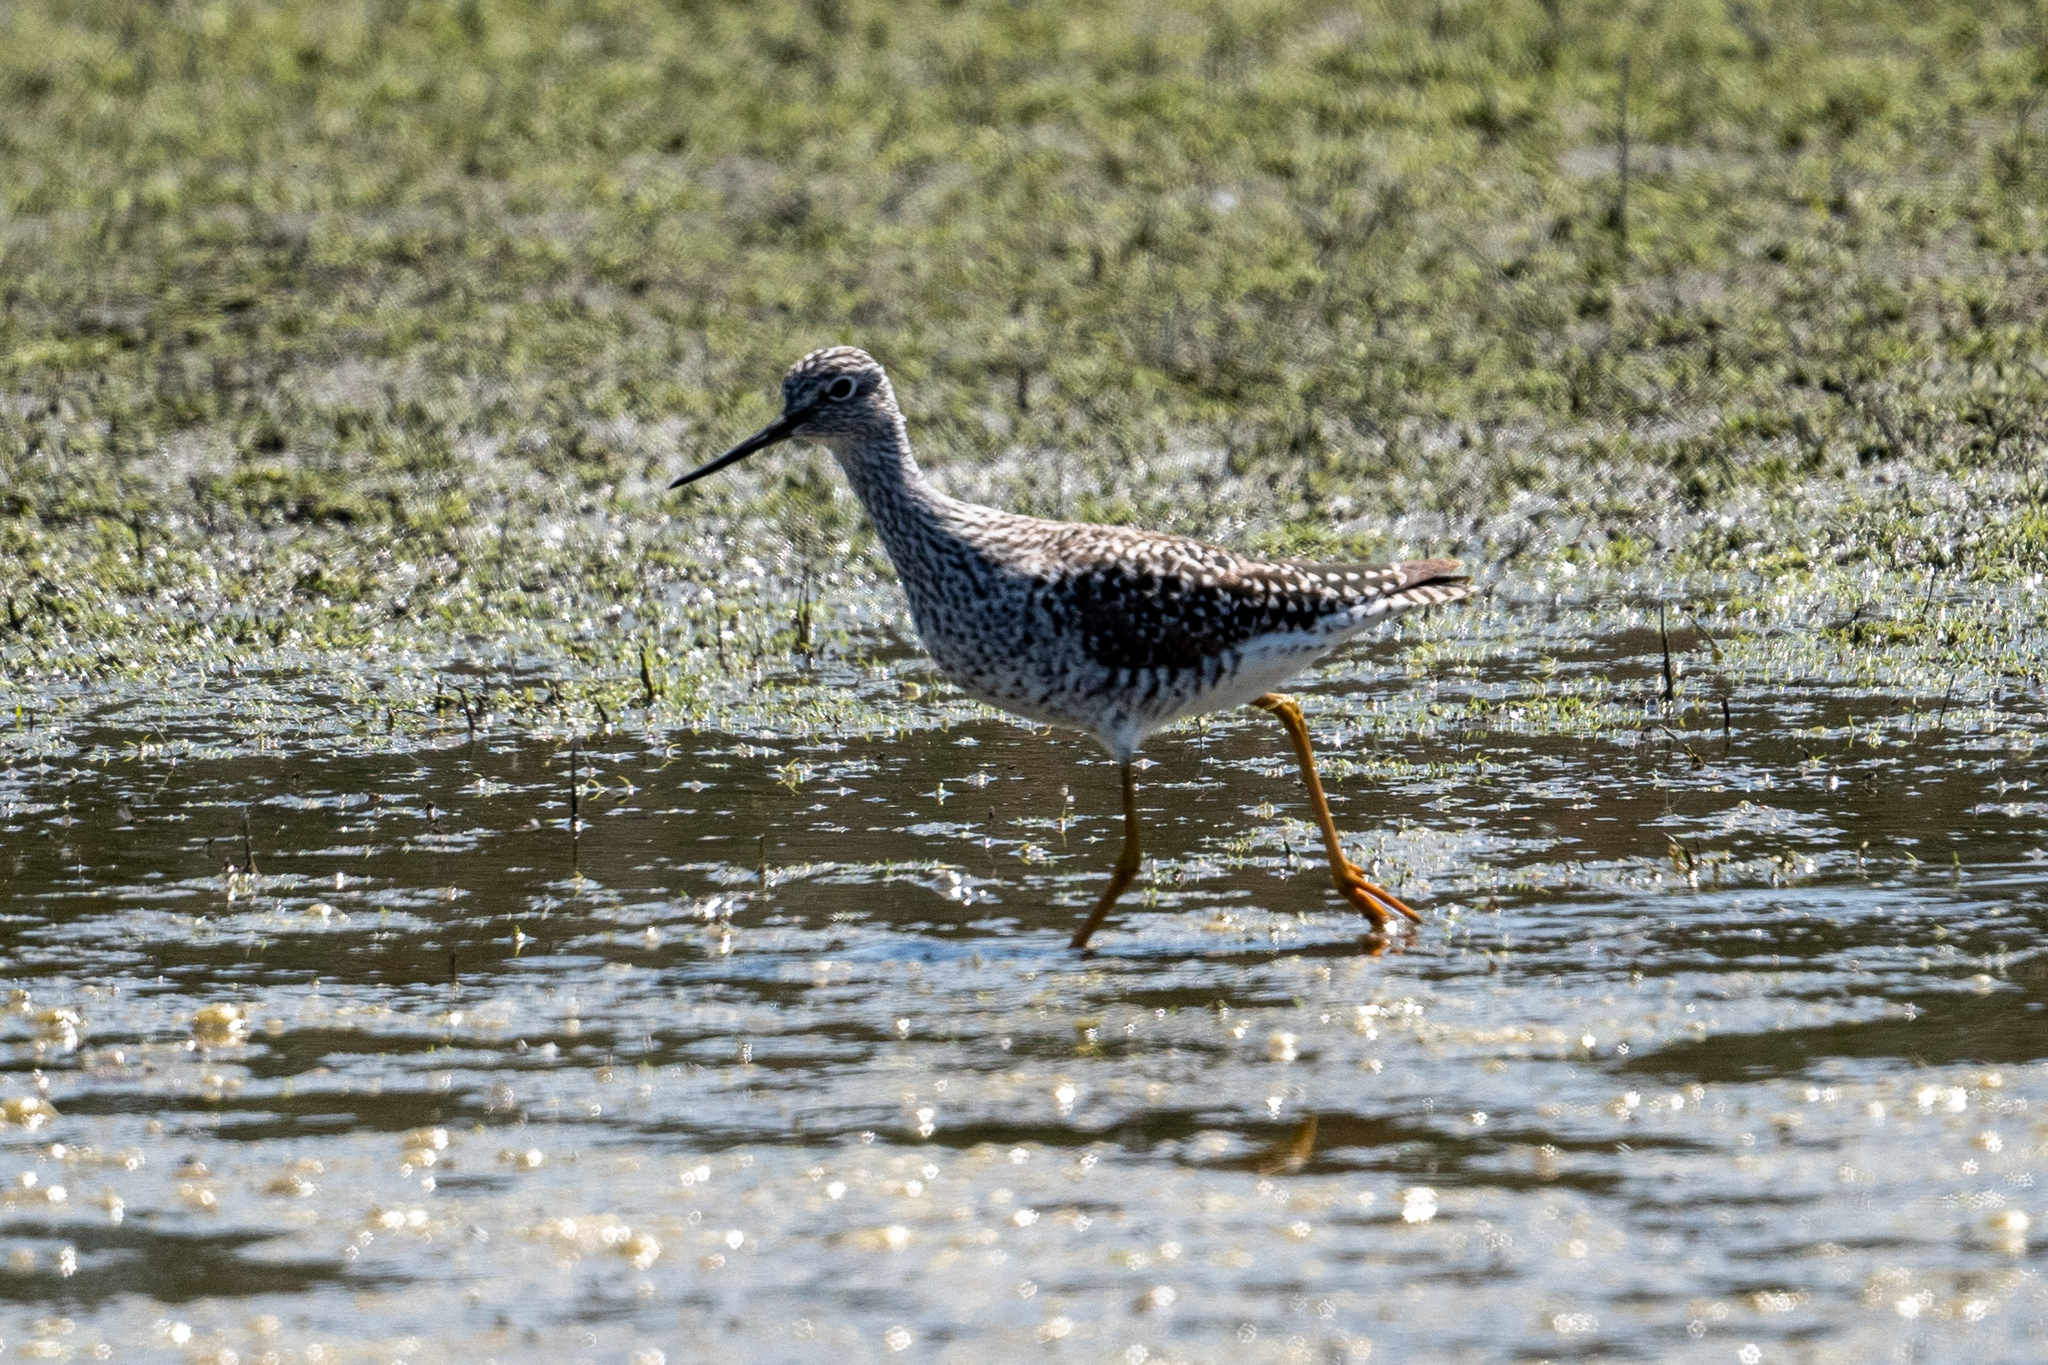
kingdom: Animalia
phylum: Chordata
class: Aves
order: Charadriiformes
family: Scolopacidae
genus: Tringa
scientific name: Tringa melanoleuca
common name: Greater yellowlegs
